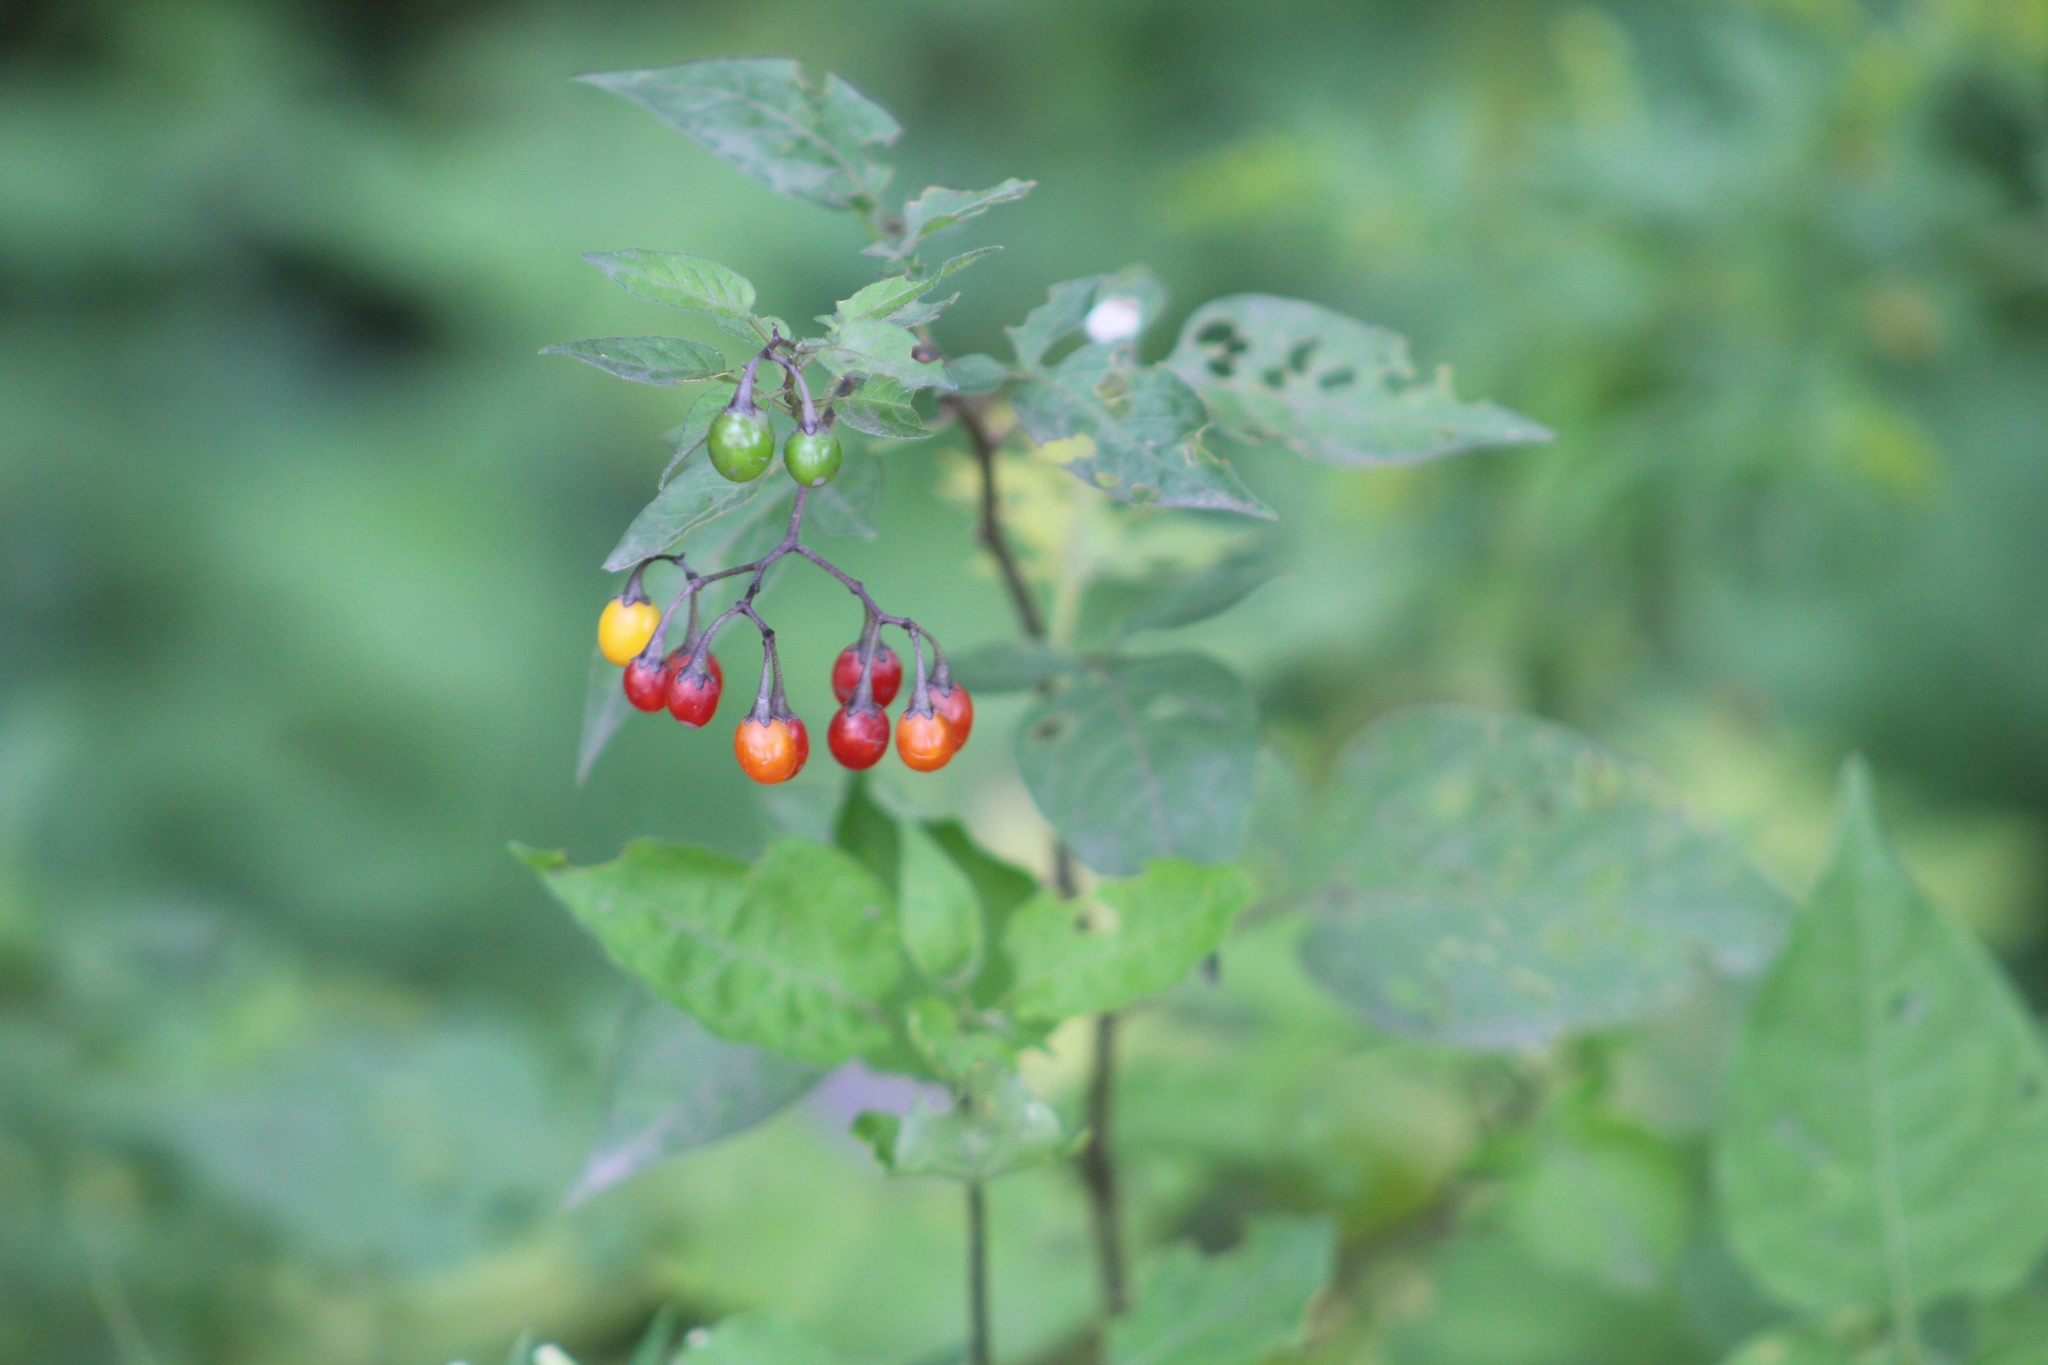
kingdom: Plantae
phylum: Tracheophyta
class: Magnoliopsida
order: Solanales
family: Solanaceae
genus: Solanum
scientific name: Solanum dulcamara
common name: Climbing nightshade
